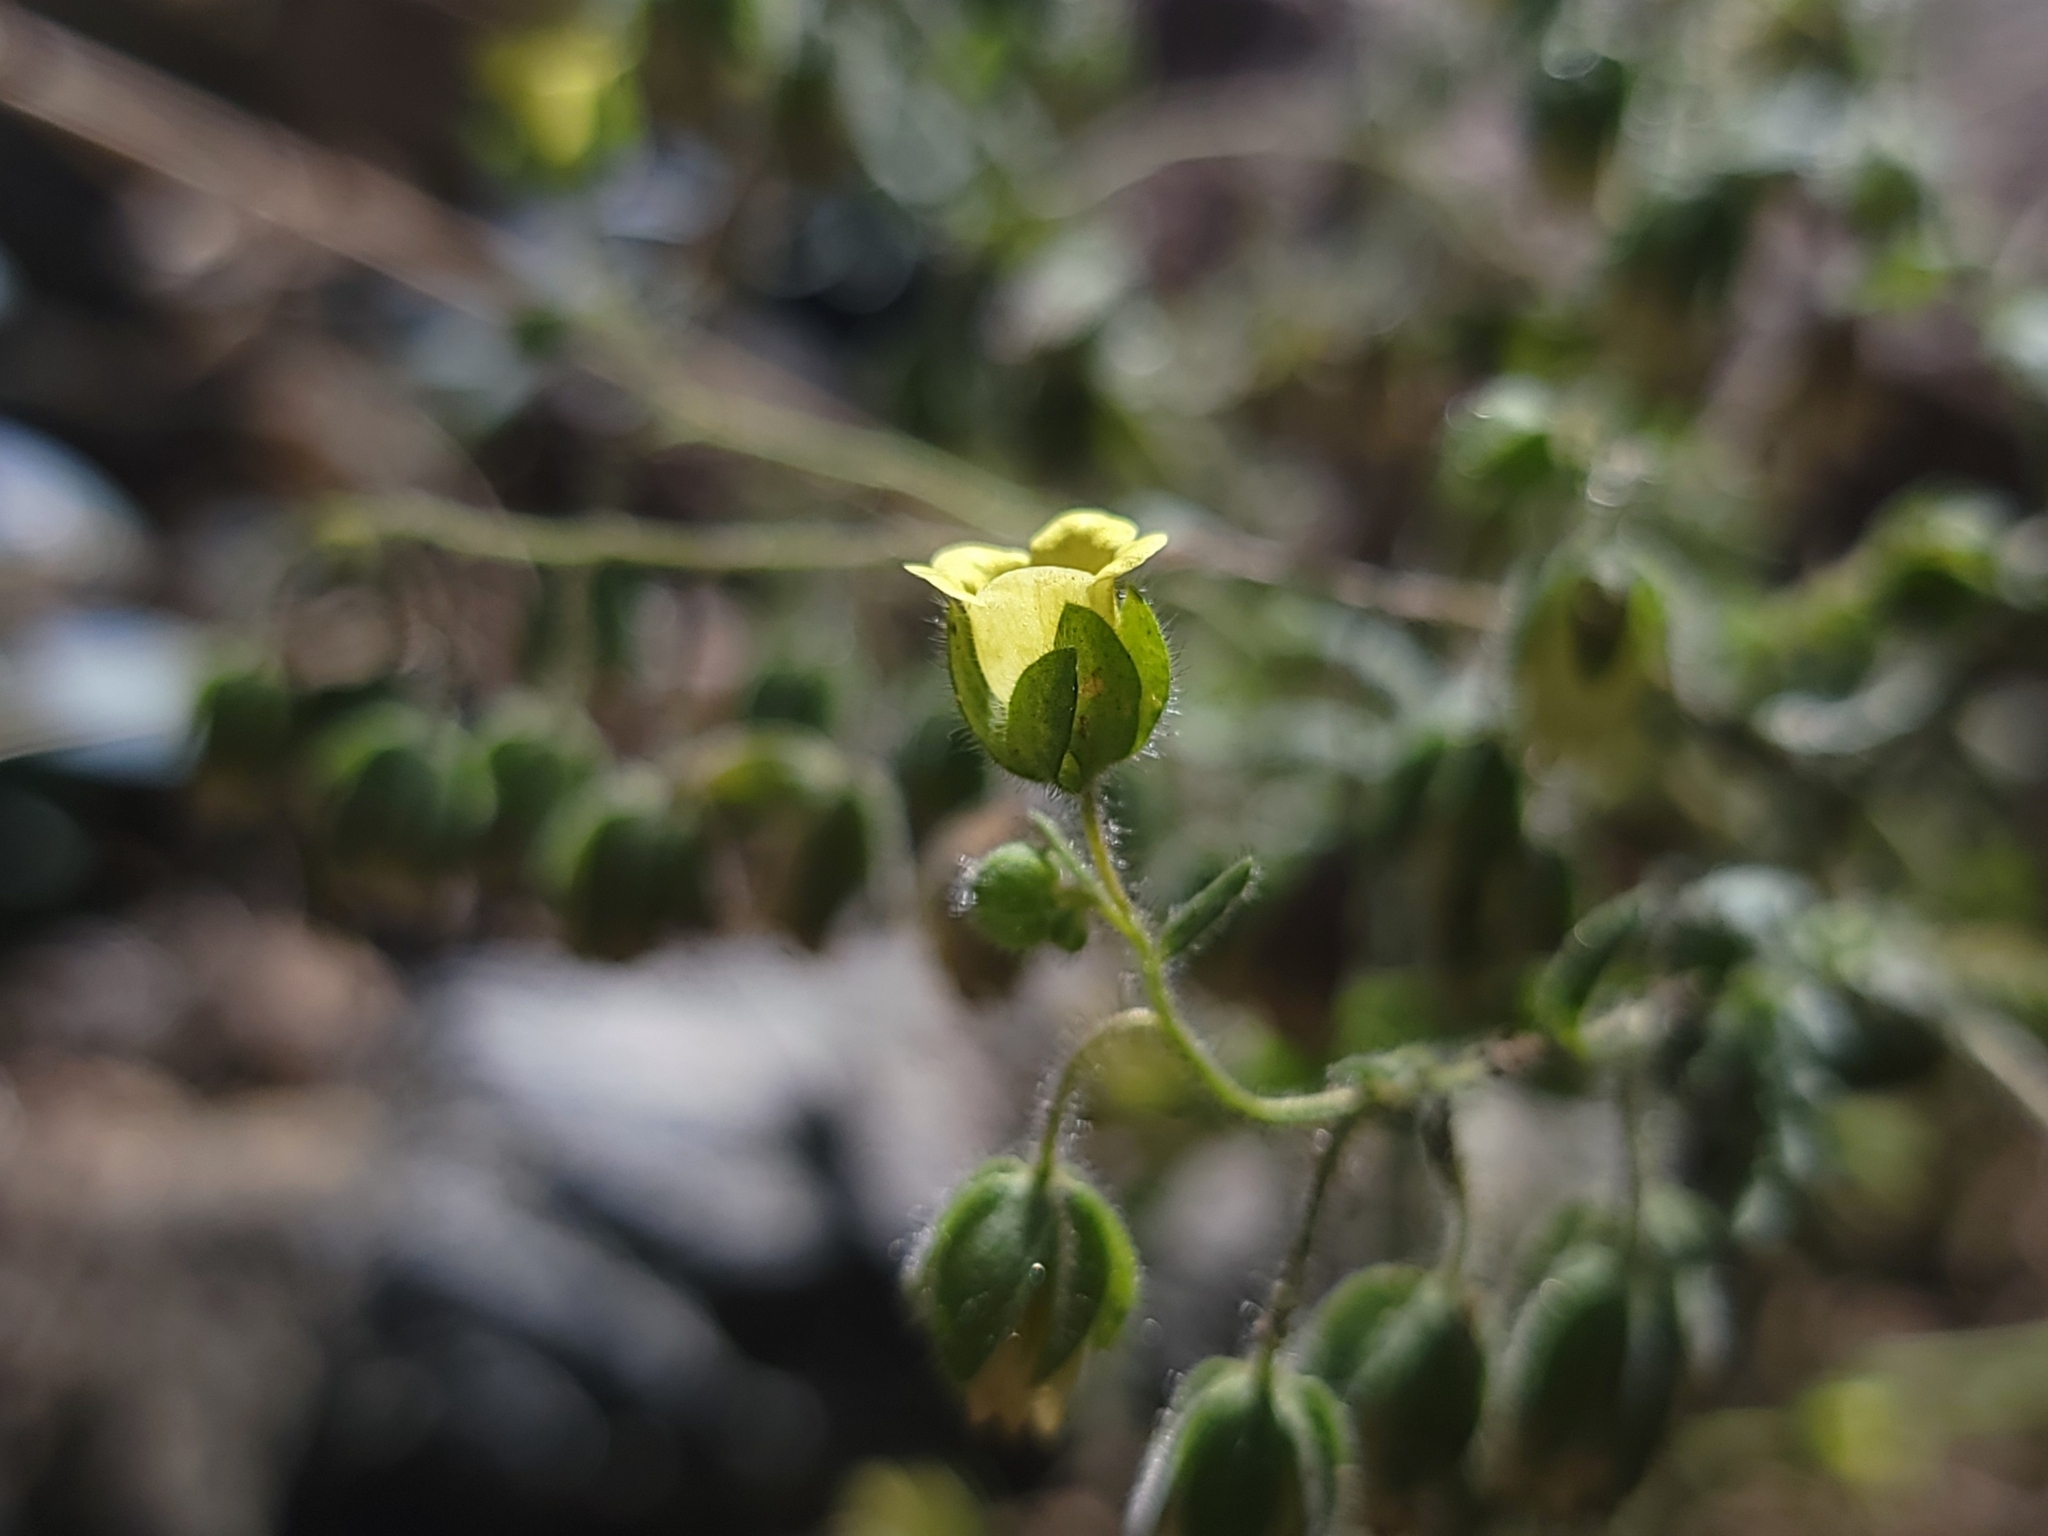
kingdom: Plantae
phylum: Tracheophyta
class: Magnoliopsida
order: Boraginales
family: Hydrophyllaceae
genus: Emmenanthe
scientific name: Emmenanthe penduliflora
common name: Whispering-bells
